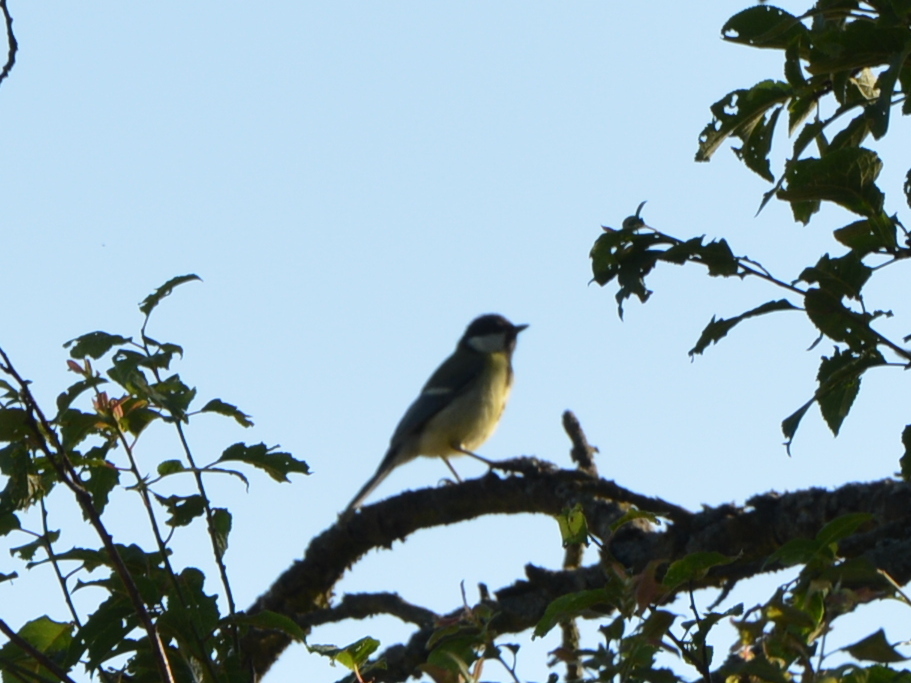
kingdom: Animalia
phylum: Chordata
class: Aves
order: Passeriformes
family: Paridae
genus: Parus
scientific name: Parus major
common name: Great tit
